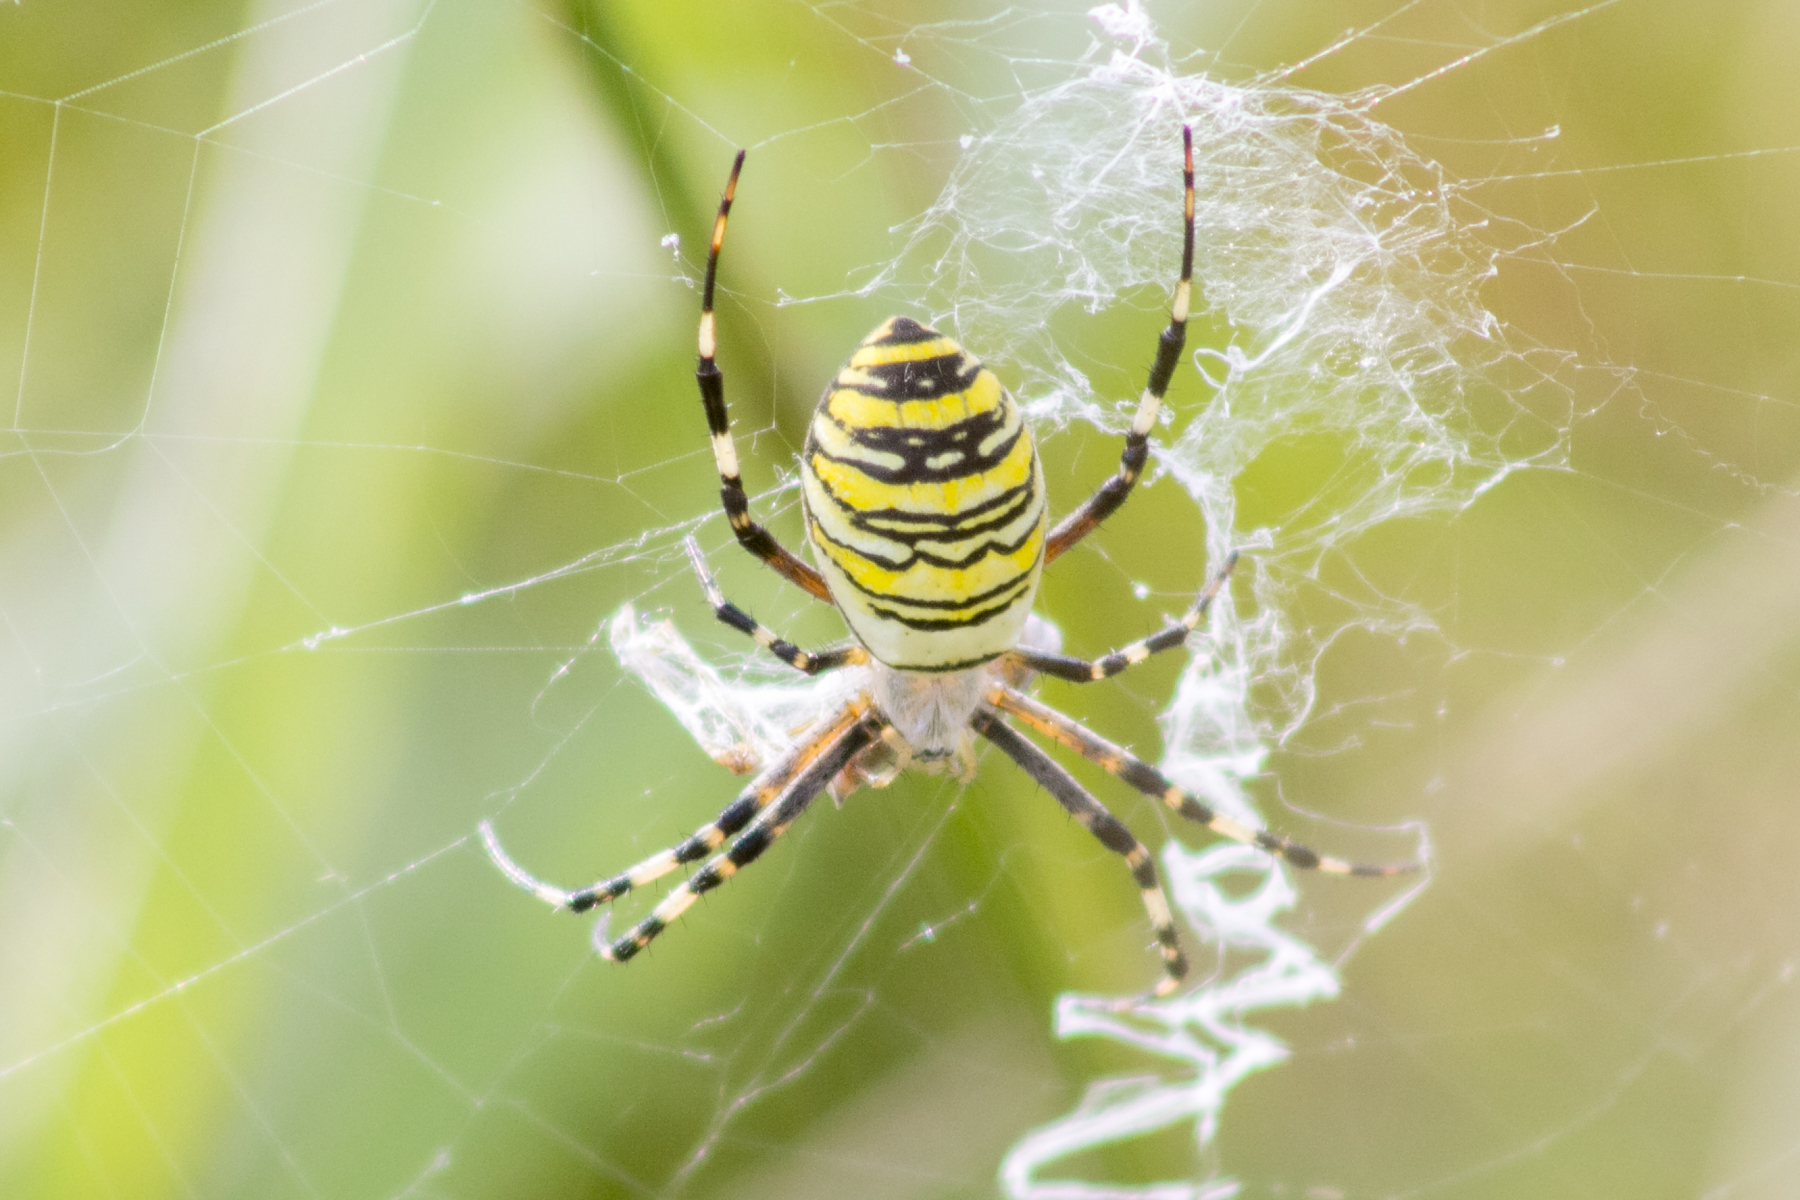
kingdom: Animalia
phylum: Arthropoda
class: Arachnida
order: Araneae
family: Araneidae
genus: Argiope
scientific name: Argiope bruennichi
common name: Wasp spider
